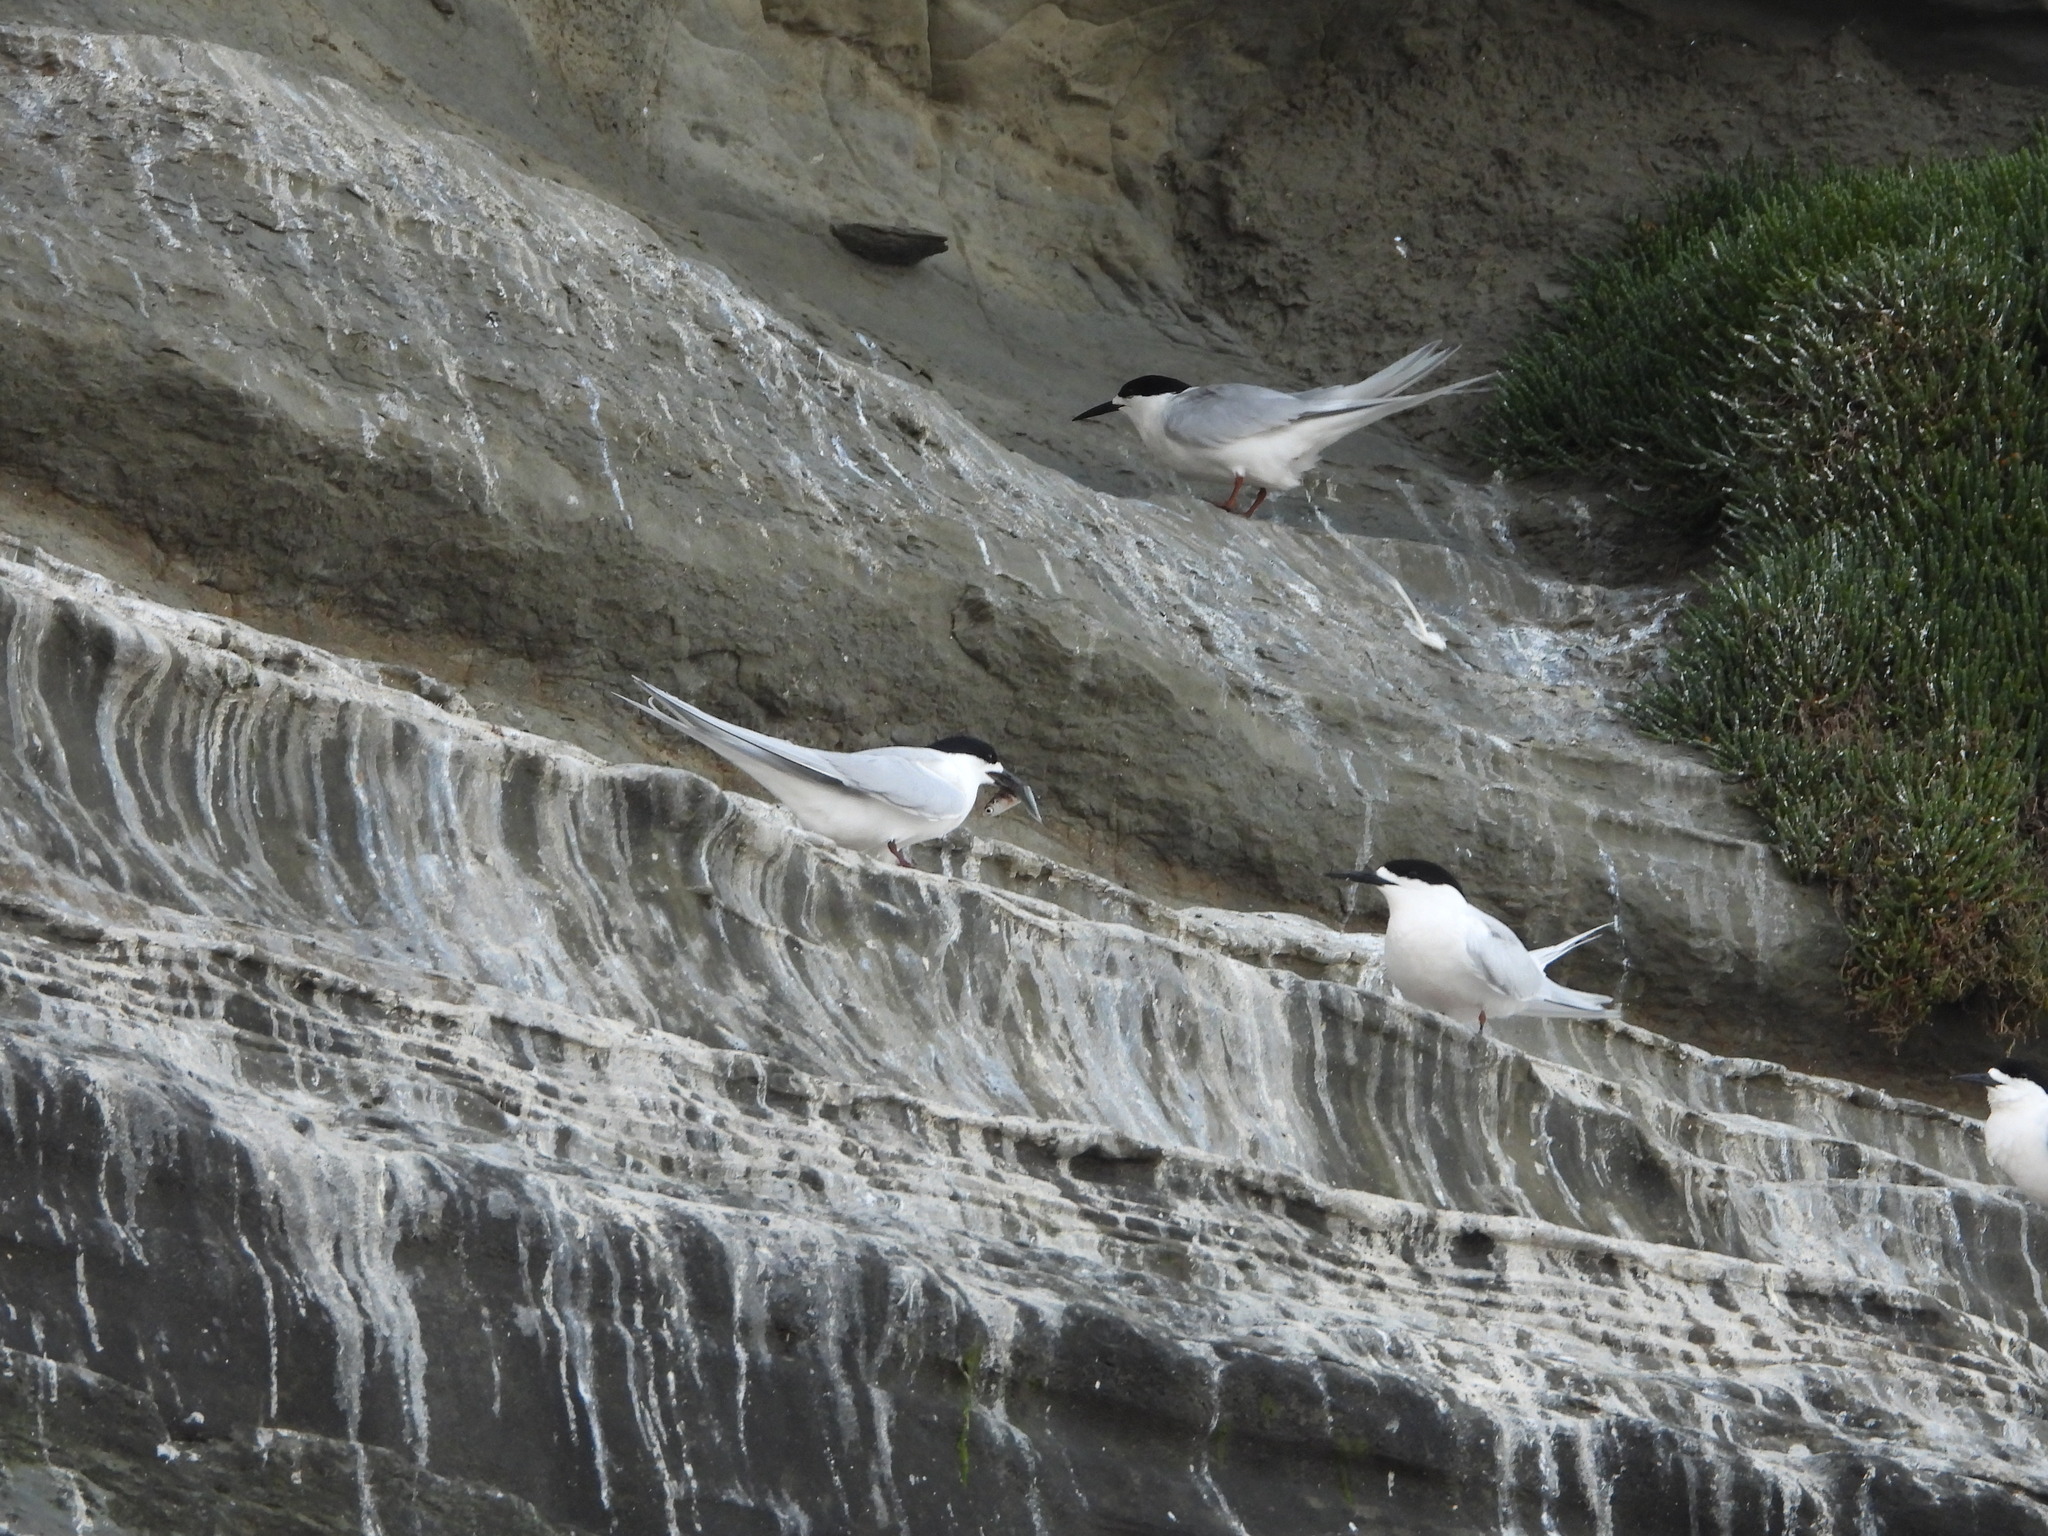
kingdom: Animalia
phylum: Chordata
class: Aves
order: Charadriiformes
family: Laridae
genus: Sterna
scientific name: Sterna striata
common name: White-fronted tern
